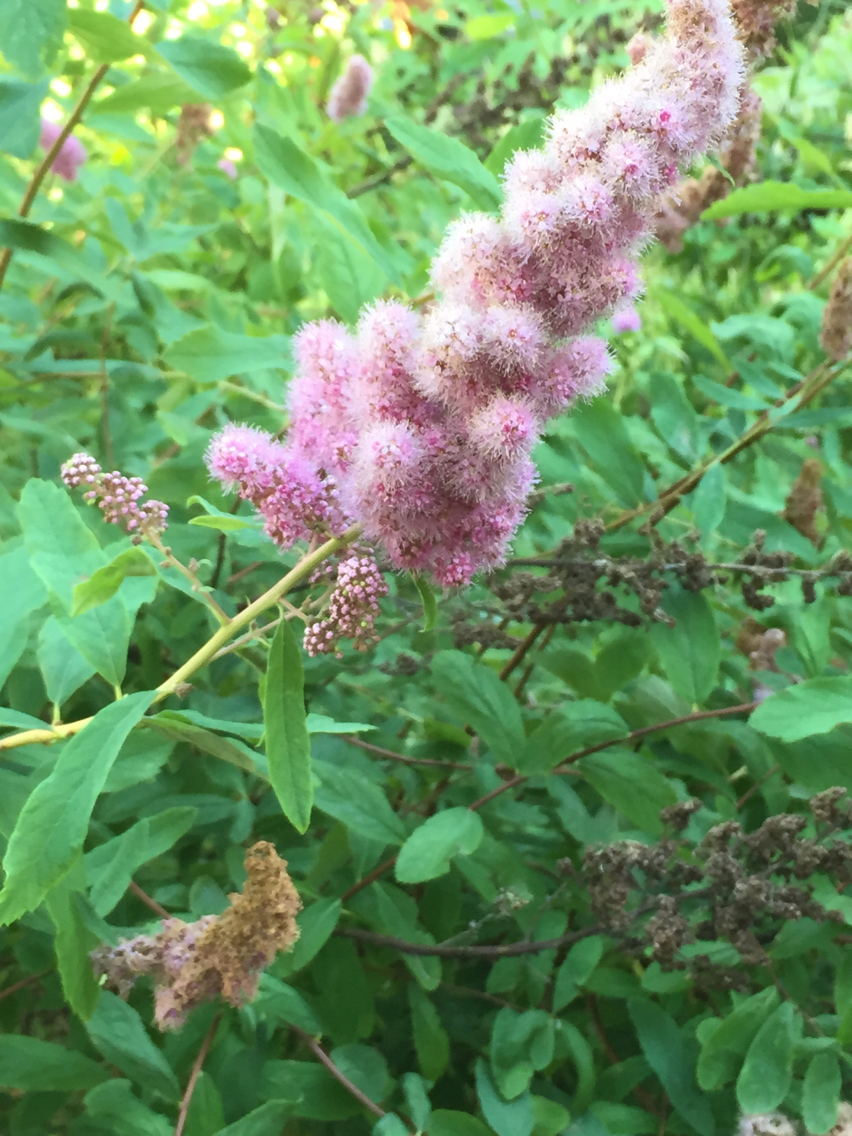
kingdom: Plantae
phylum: Tracheophyta
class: Magnoliopsida
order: Rosales
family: Rosaceae
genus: Spiraea
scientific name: Spiraea douglasii
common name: Steeplebush
